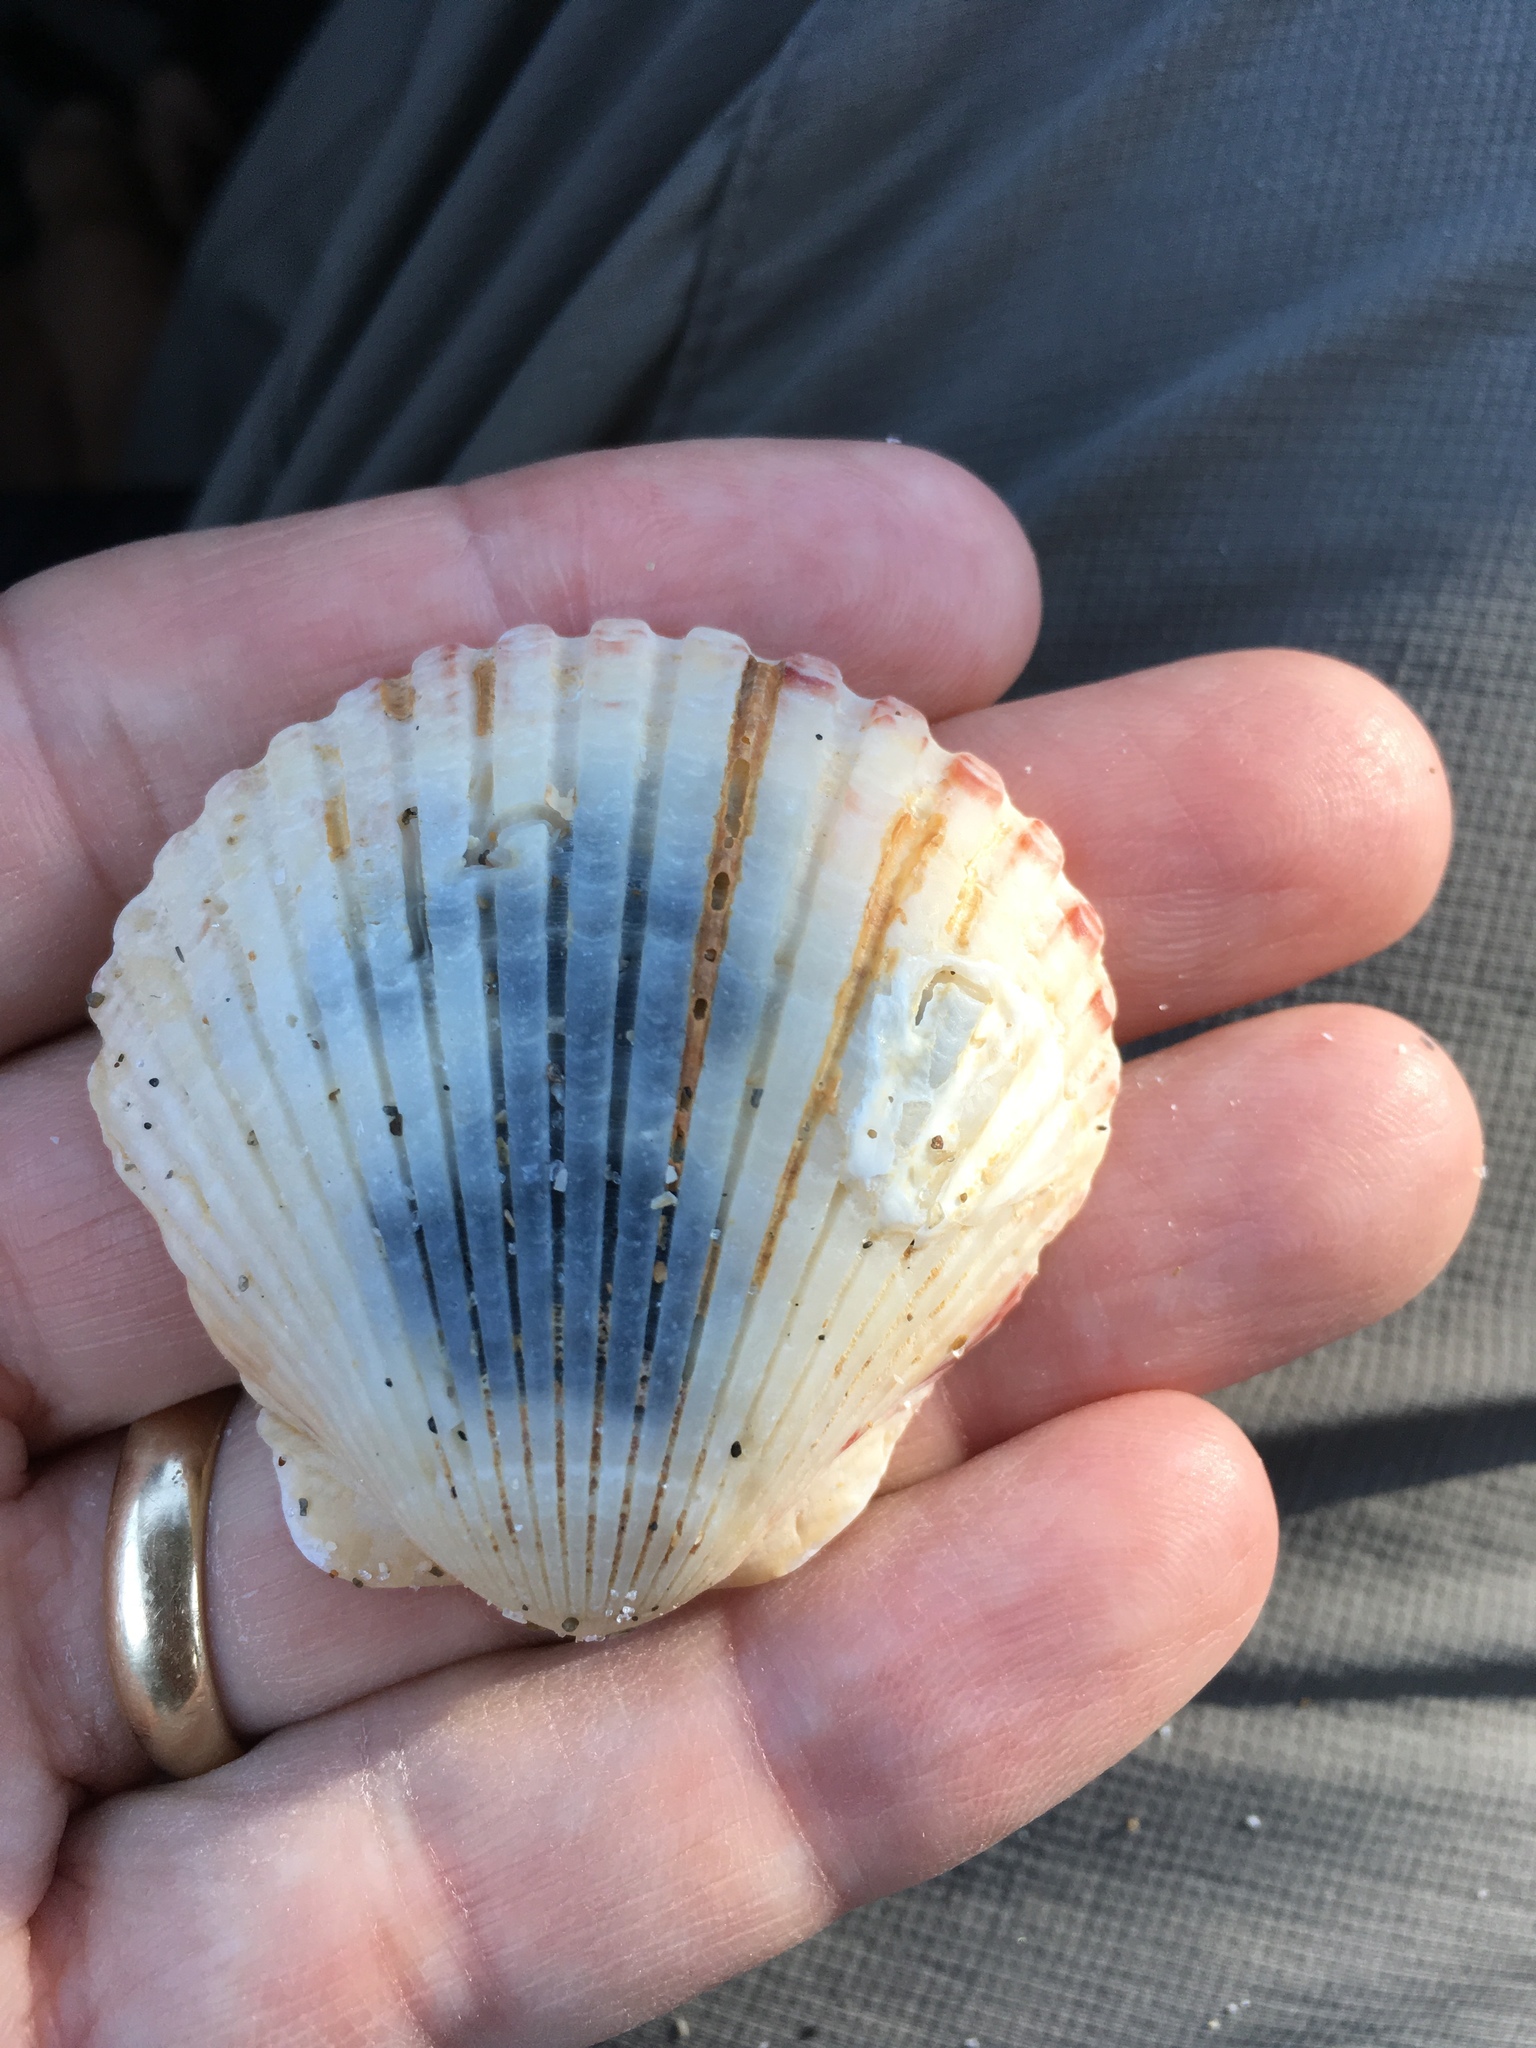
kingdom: Animalia
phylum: Mollusca
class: Bivalvia
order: Pectinida
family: Pectinidae
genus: Argopecten
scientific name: Argopecten gibbus
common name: Atlantic calico scallop
